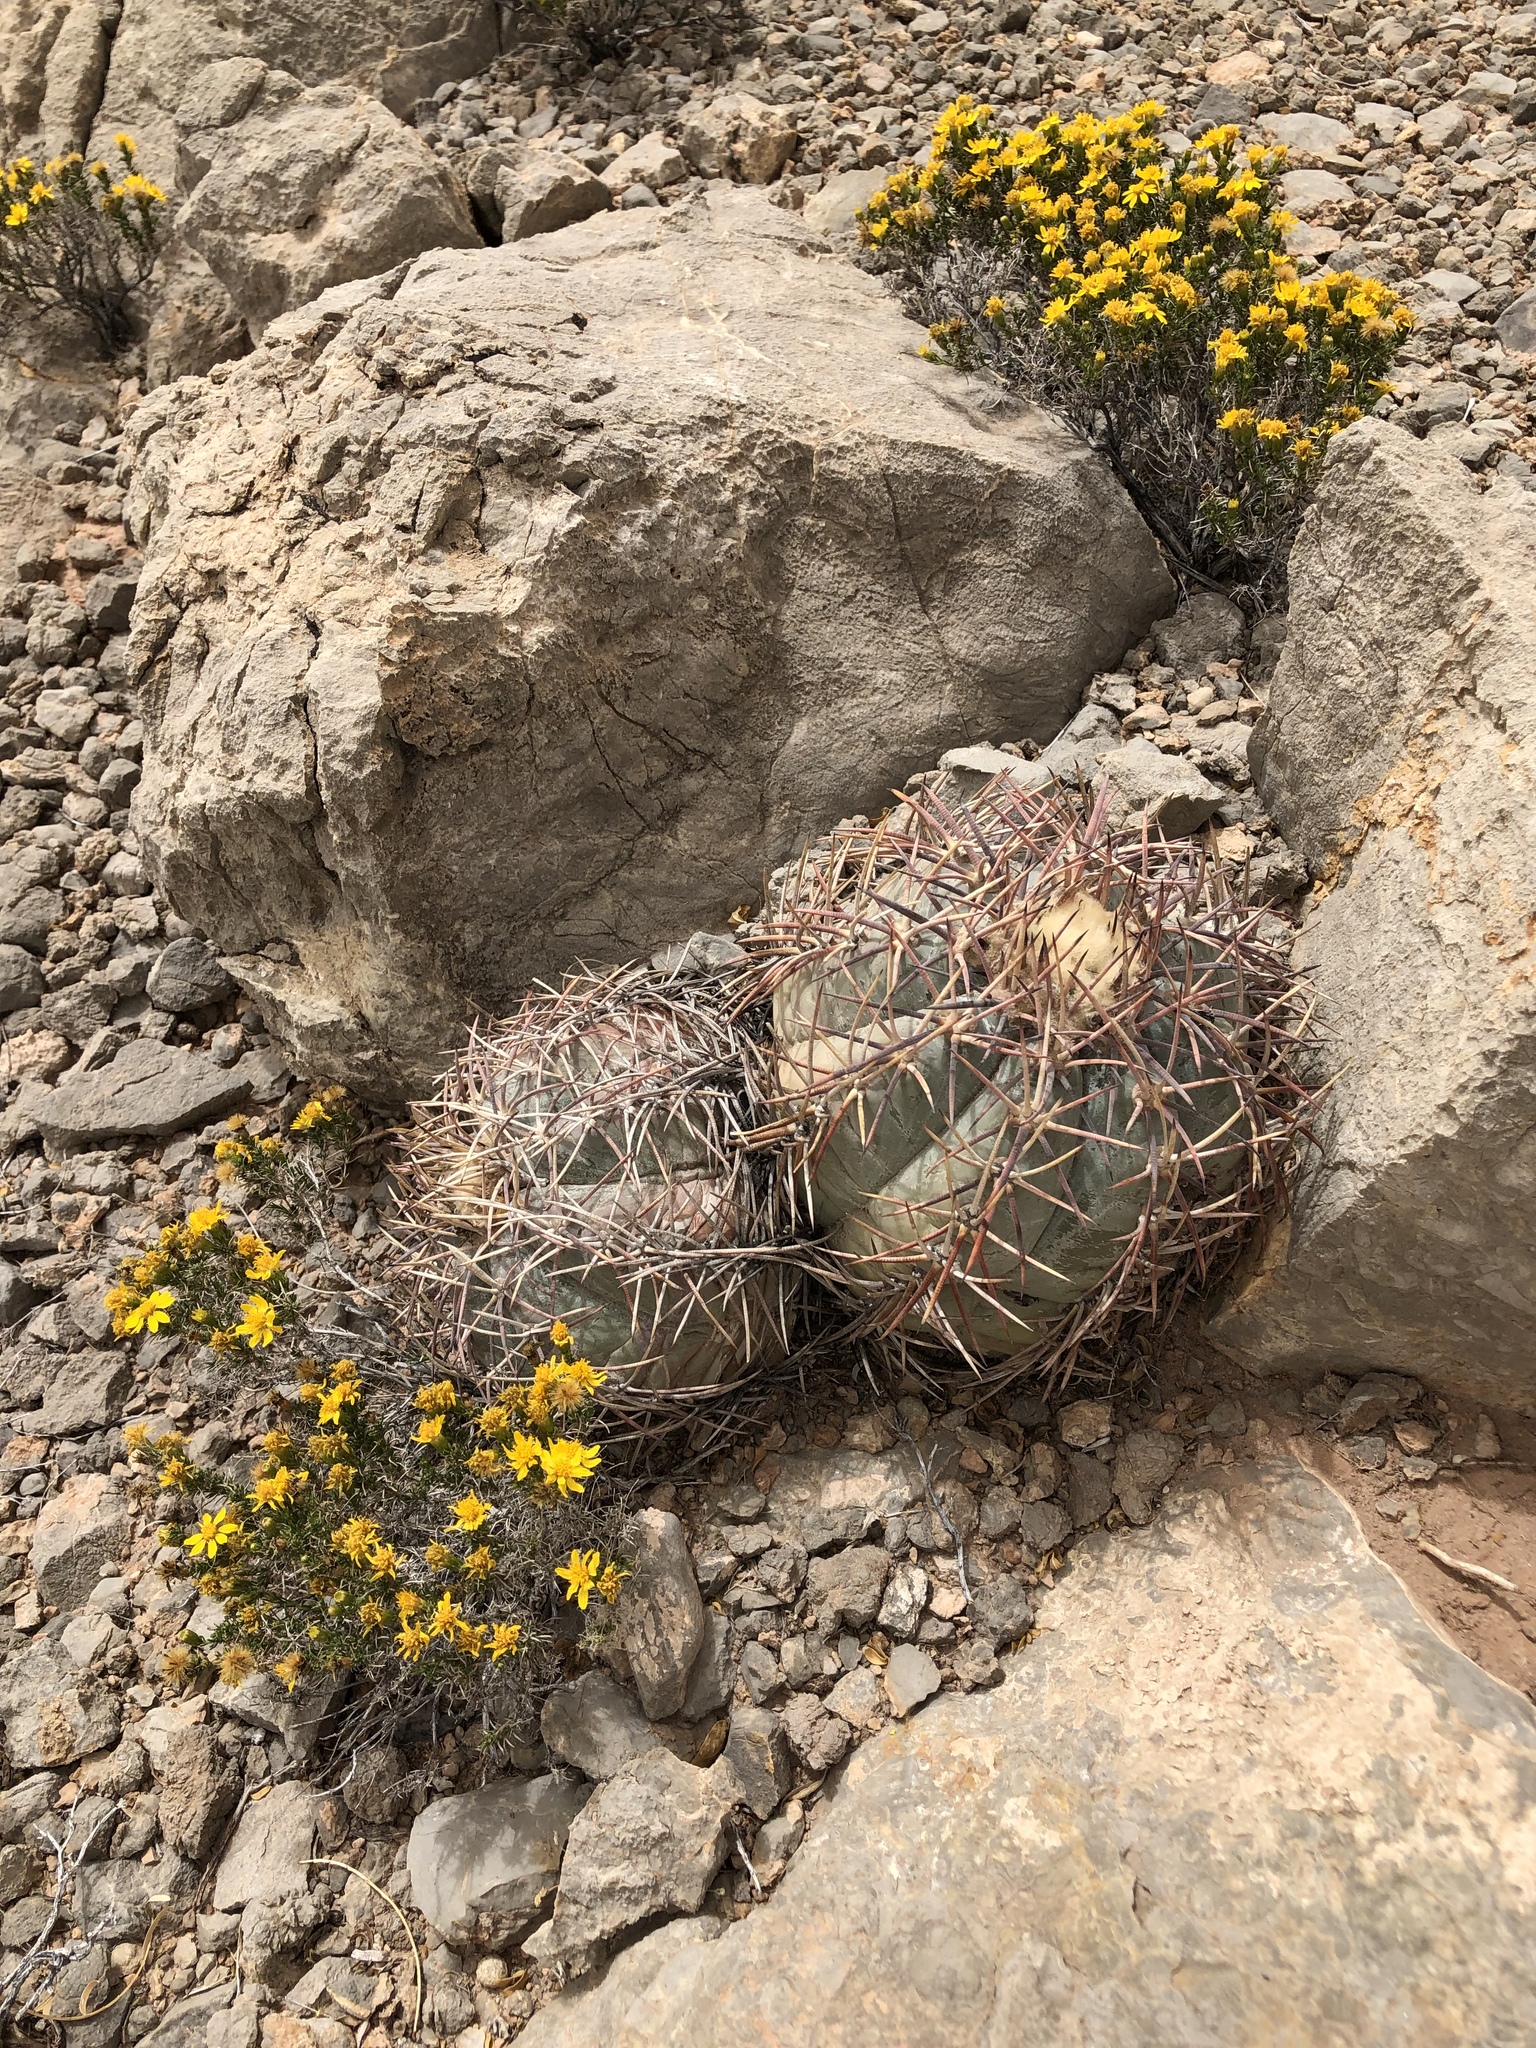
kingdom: Plantae
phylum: Tracheophyta
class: Magnoliopsida
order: Caryophyllales
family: Cactaceae
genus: Echinocactus
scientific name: Echinocactus horizonthalonius
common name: Devilshead
